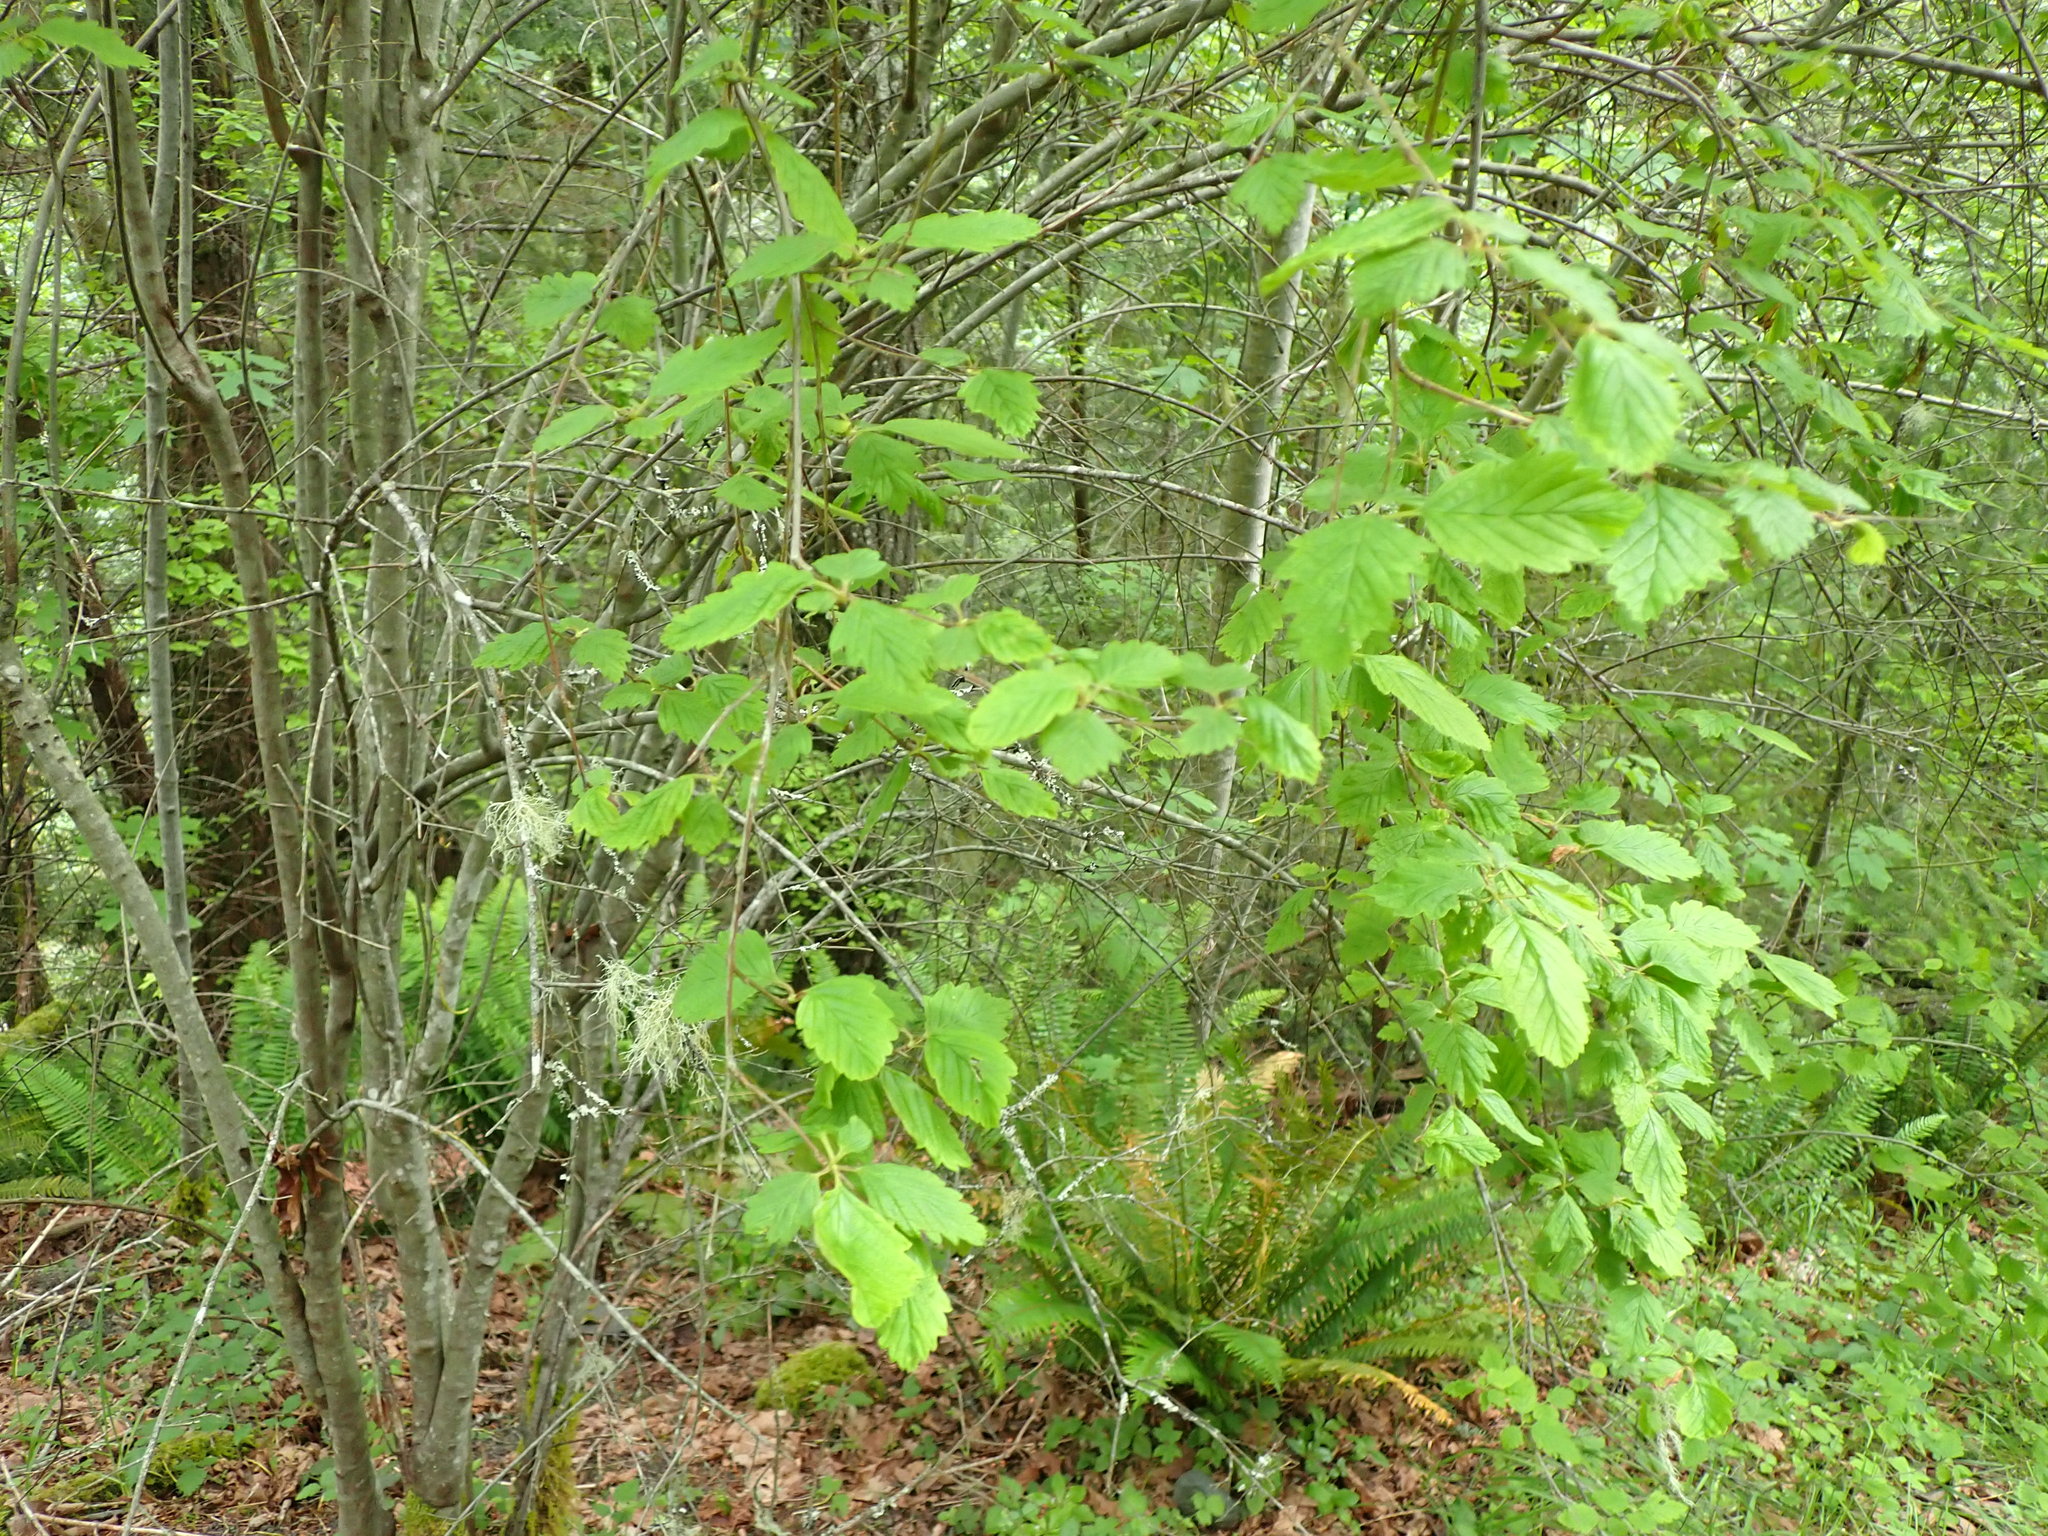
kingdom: Plantae
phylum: Tracheophyta
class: Magnoliopsida
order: Rosales
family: Rosaceae
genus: Holodiscus
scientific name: Holodiscus discolor
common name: Oceanspray
